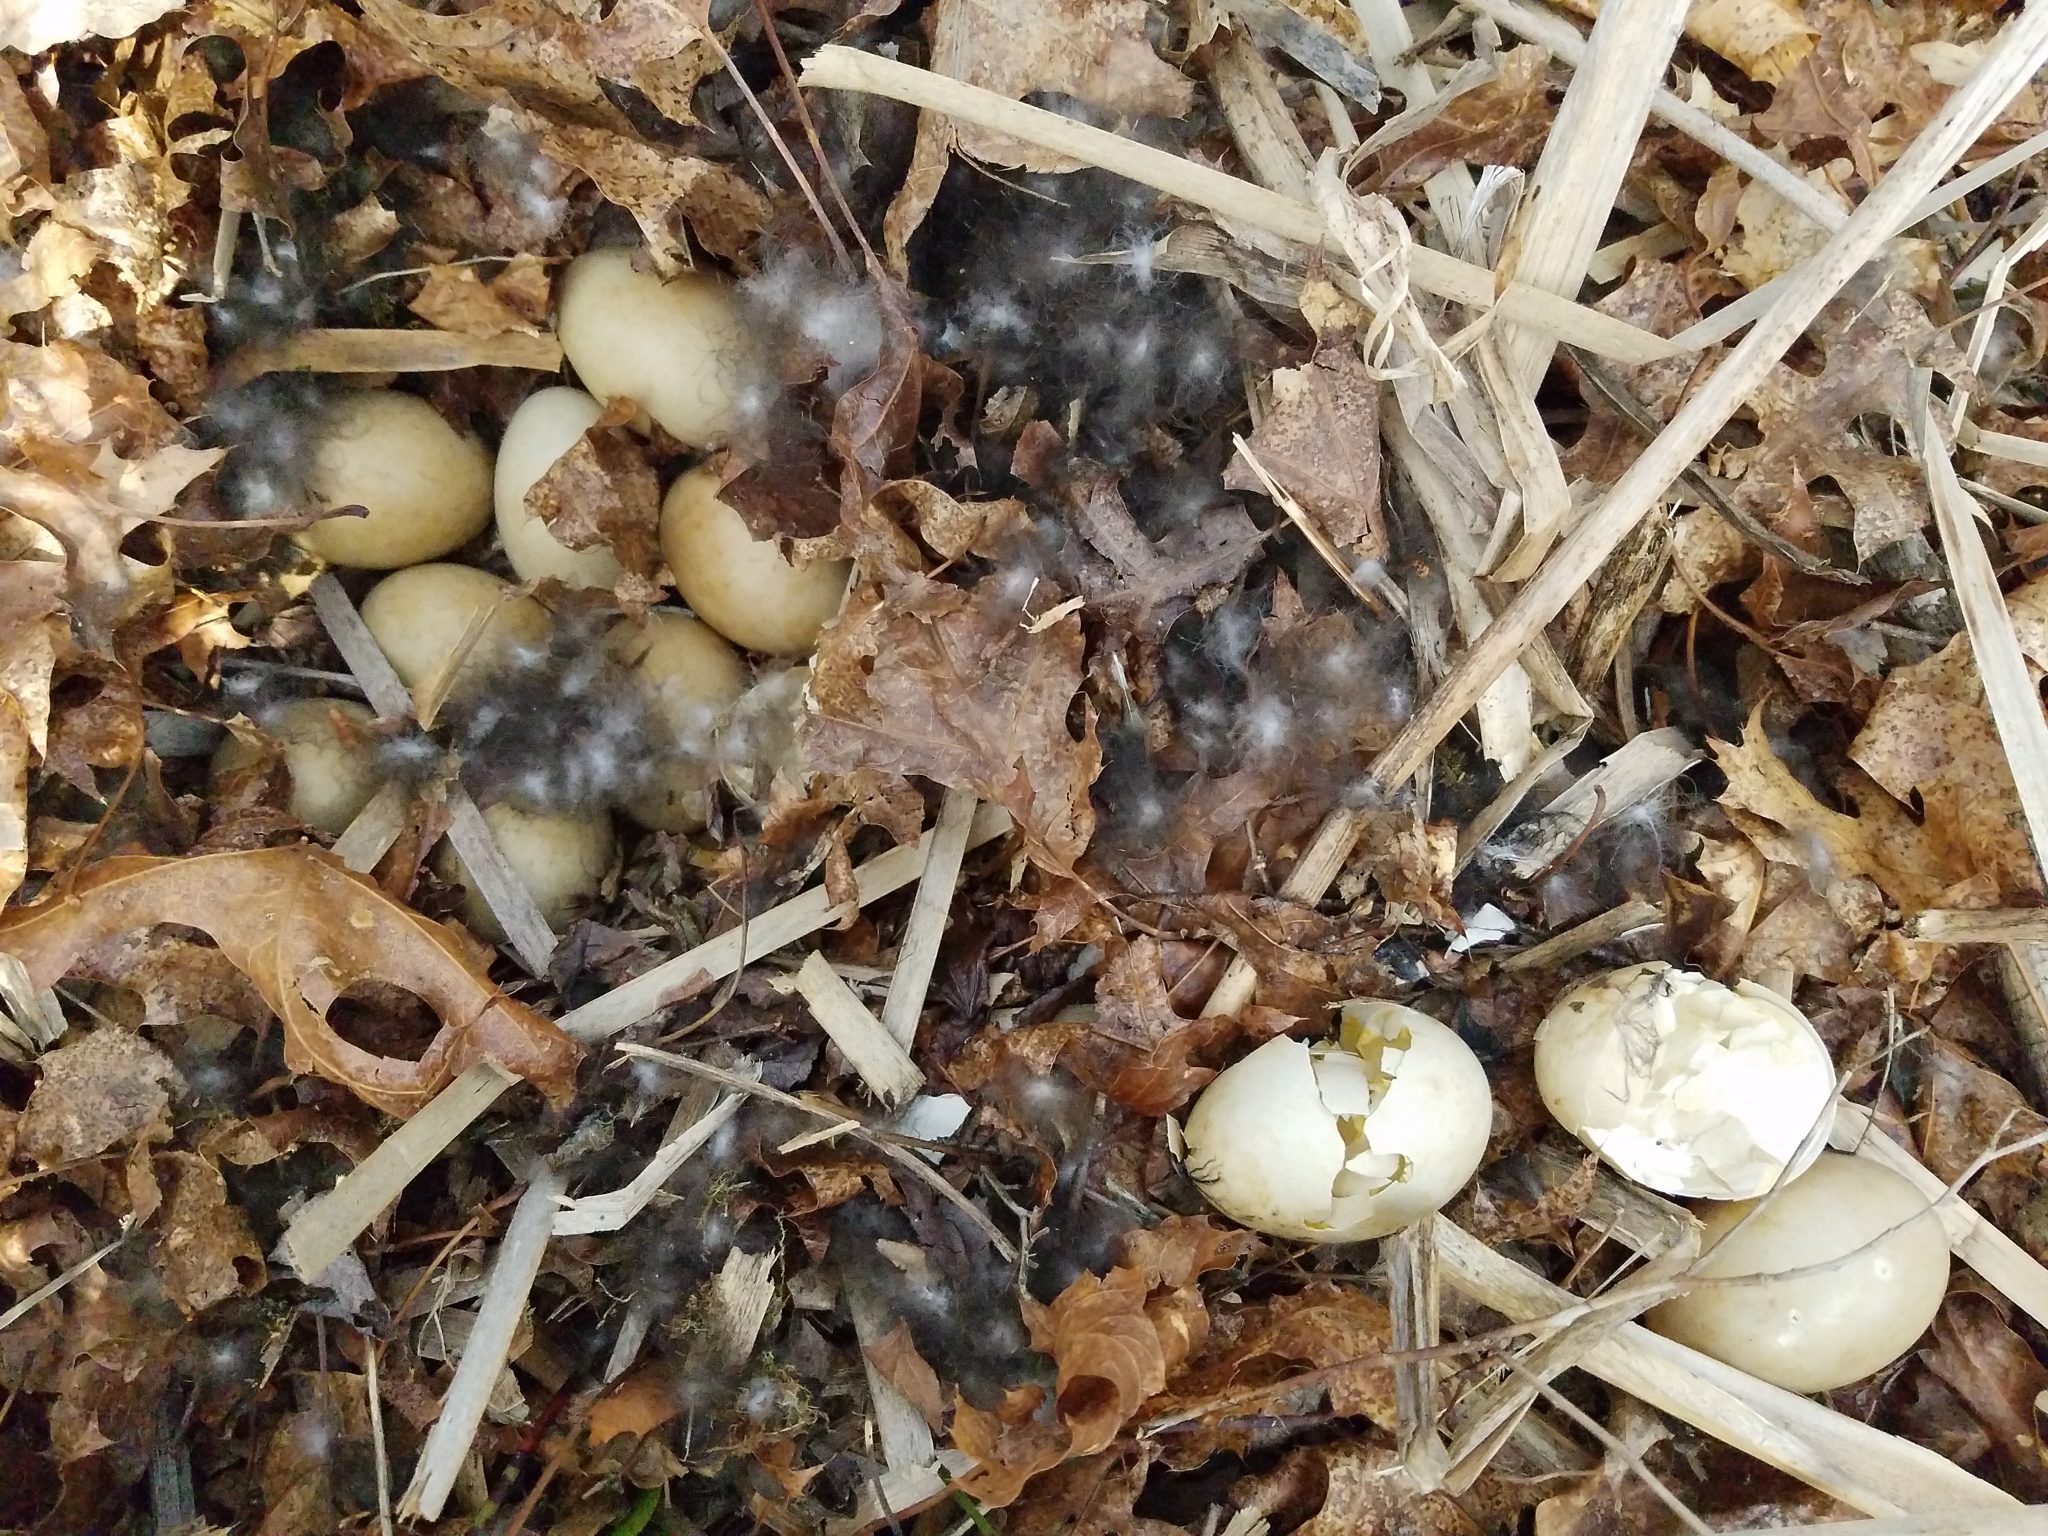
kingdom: Animalia
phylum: Chordata
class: Aves
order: Anseriformes
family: Anatidae
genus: Branta
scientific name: Branta canadensis
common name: Canada goose
